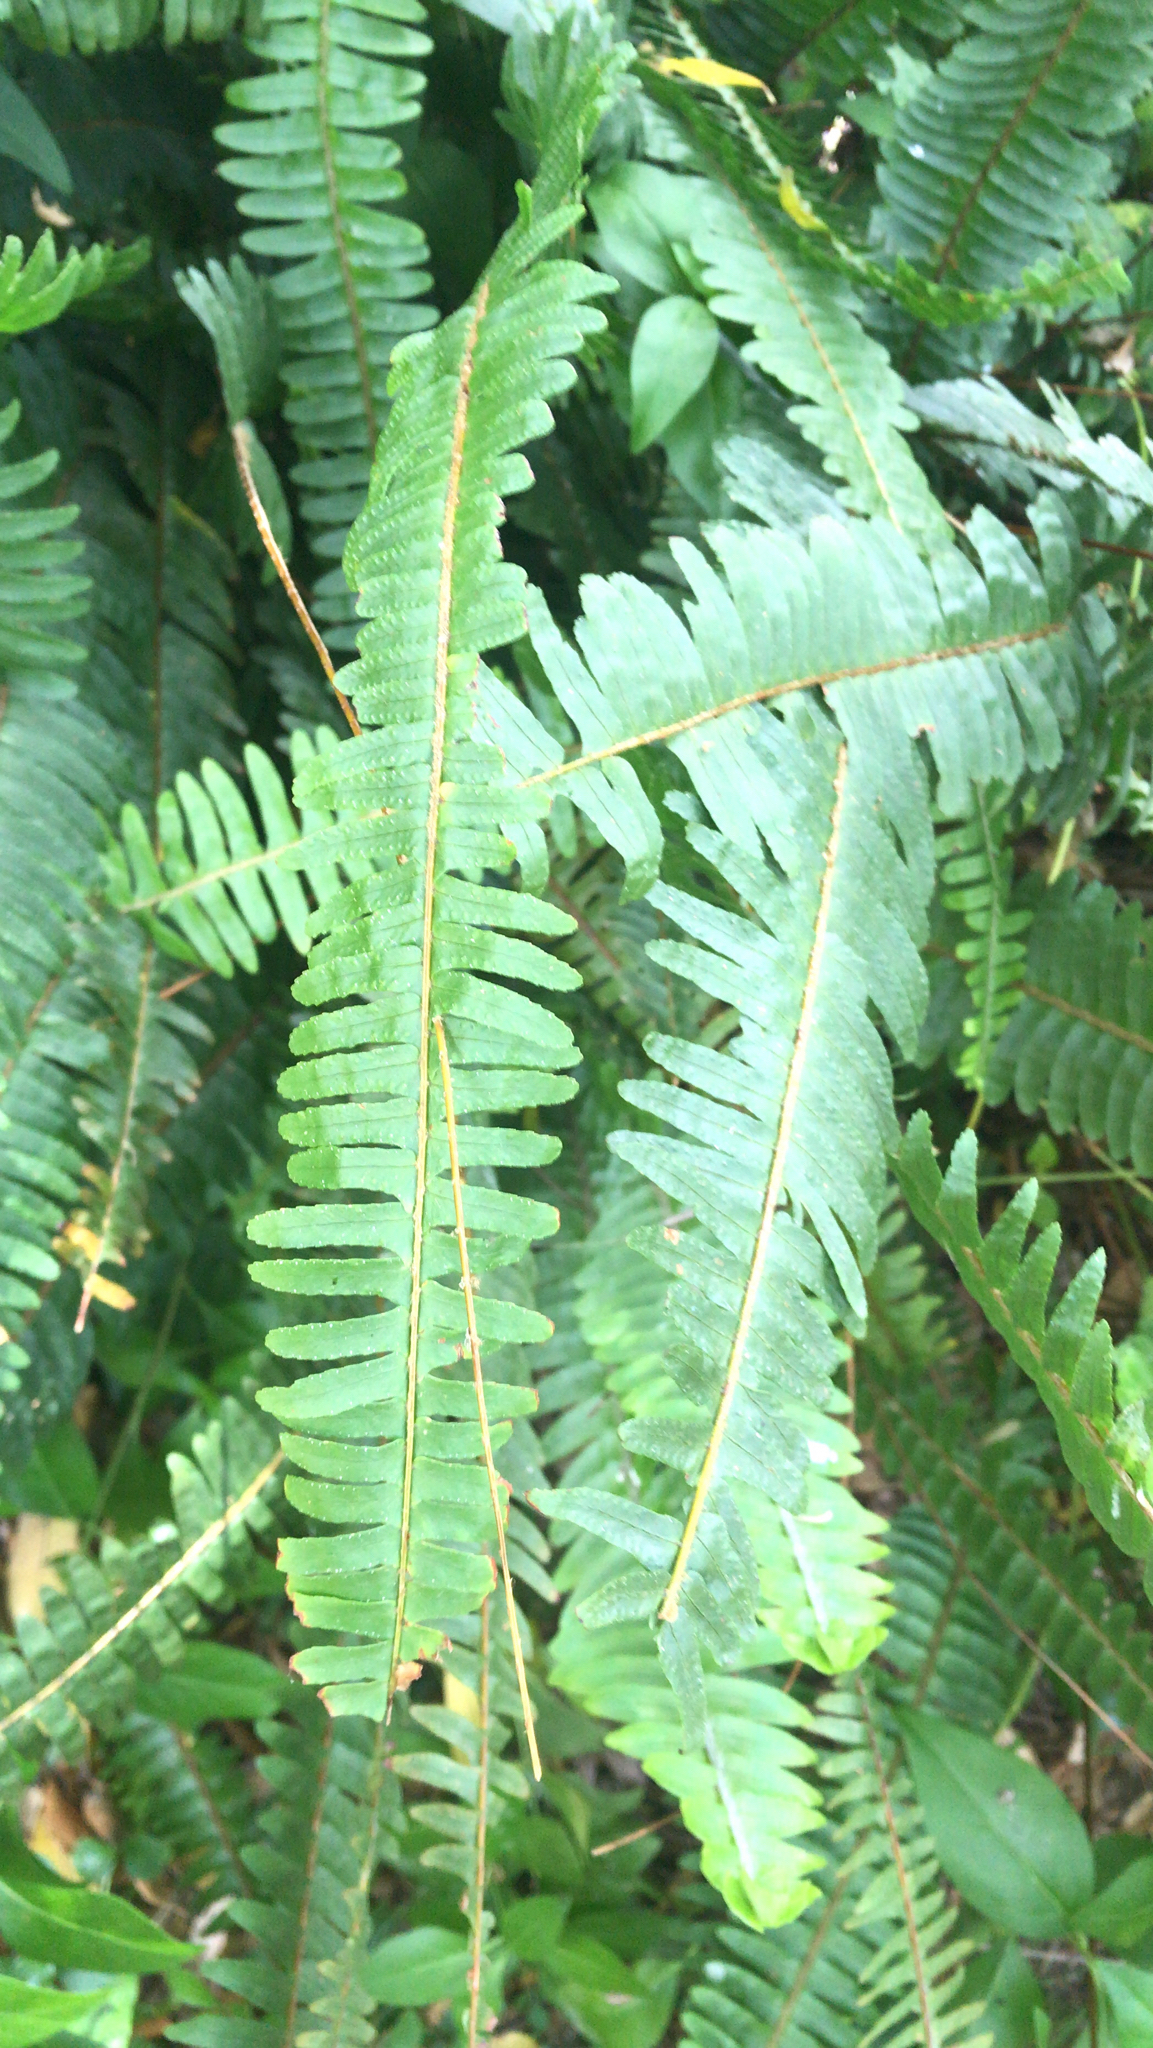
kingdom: Plantae
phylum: Tracheophyta
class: Polypodiopsida
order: Polypodiales
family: Nephrolepidaceae
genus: Nephrolepis
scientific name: Nephrolepis cordifolia
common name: Narrow swordfern
